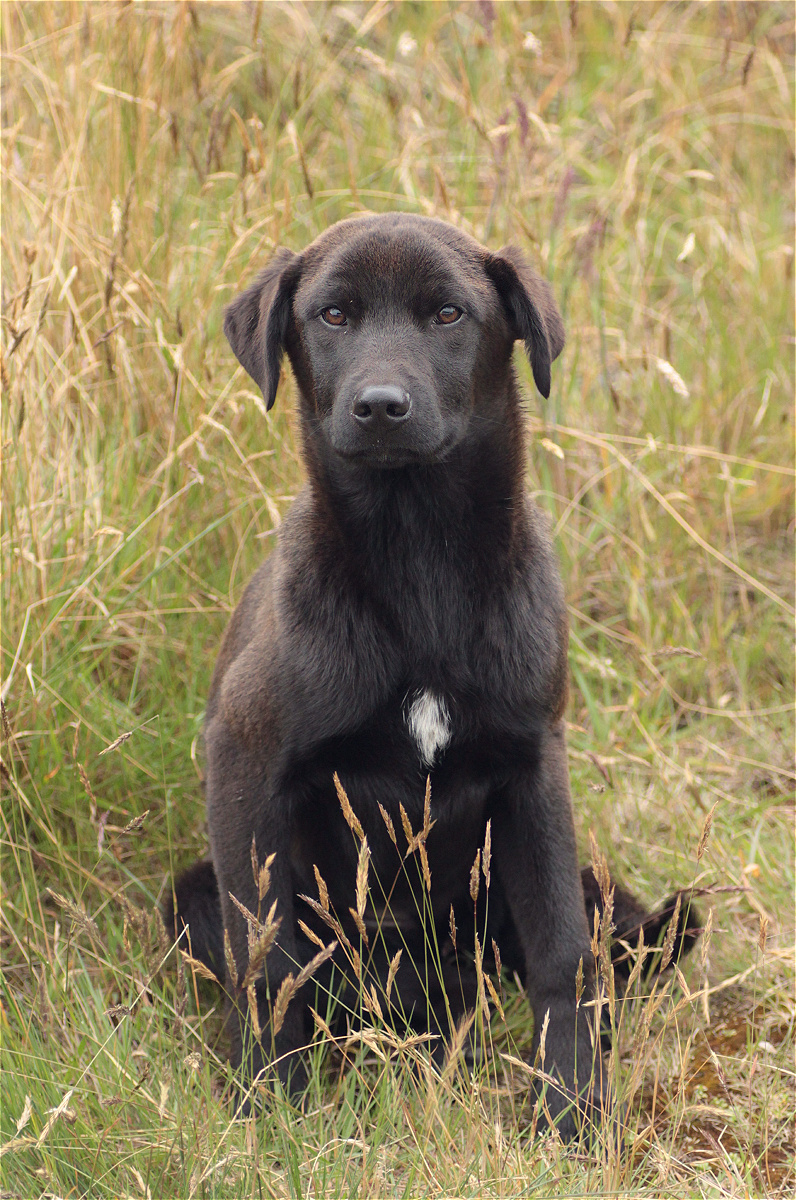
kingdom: Animalia
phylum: Chordata
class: Mammalia
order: Carnivora
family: Canidae
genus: Canis
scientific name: Canis lupus
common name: Gray wolf
